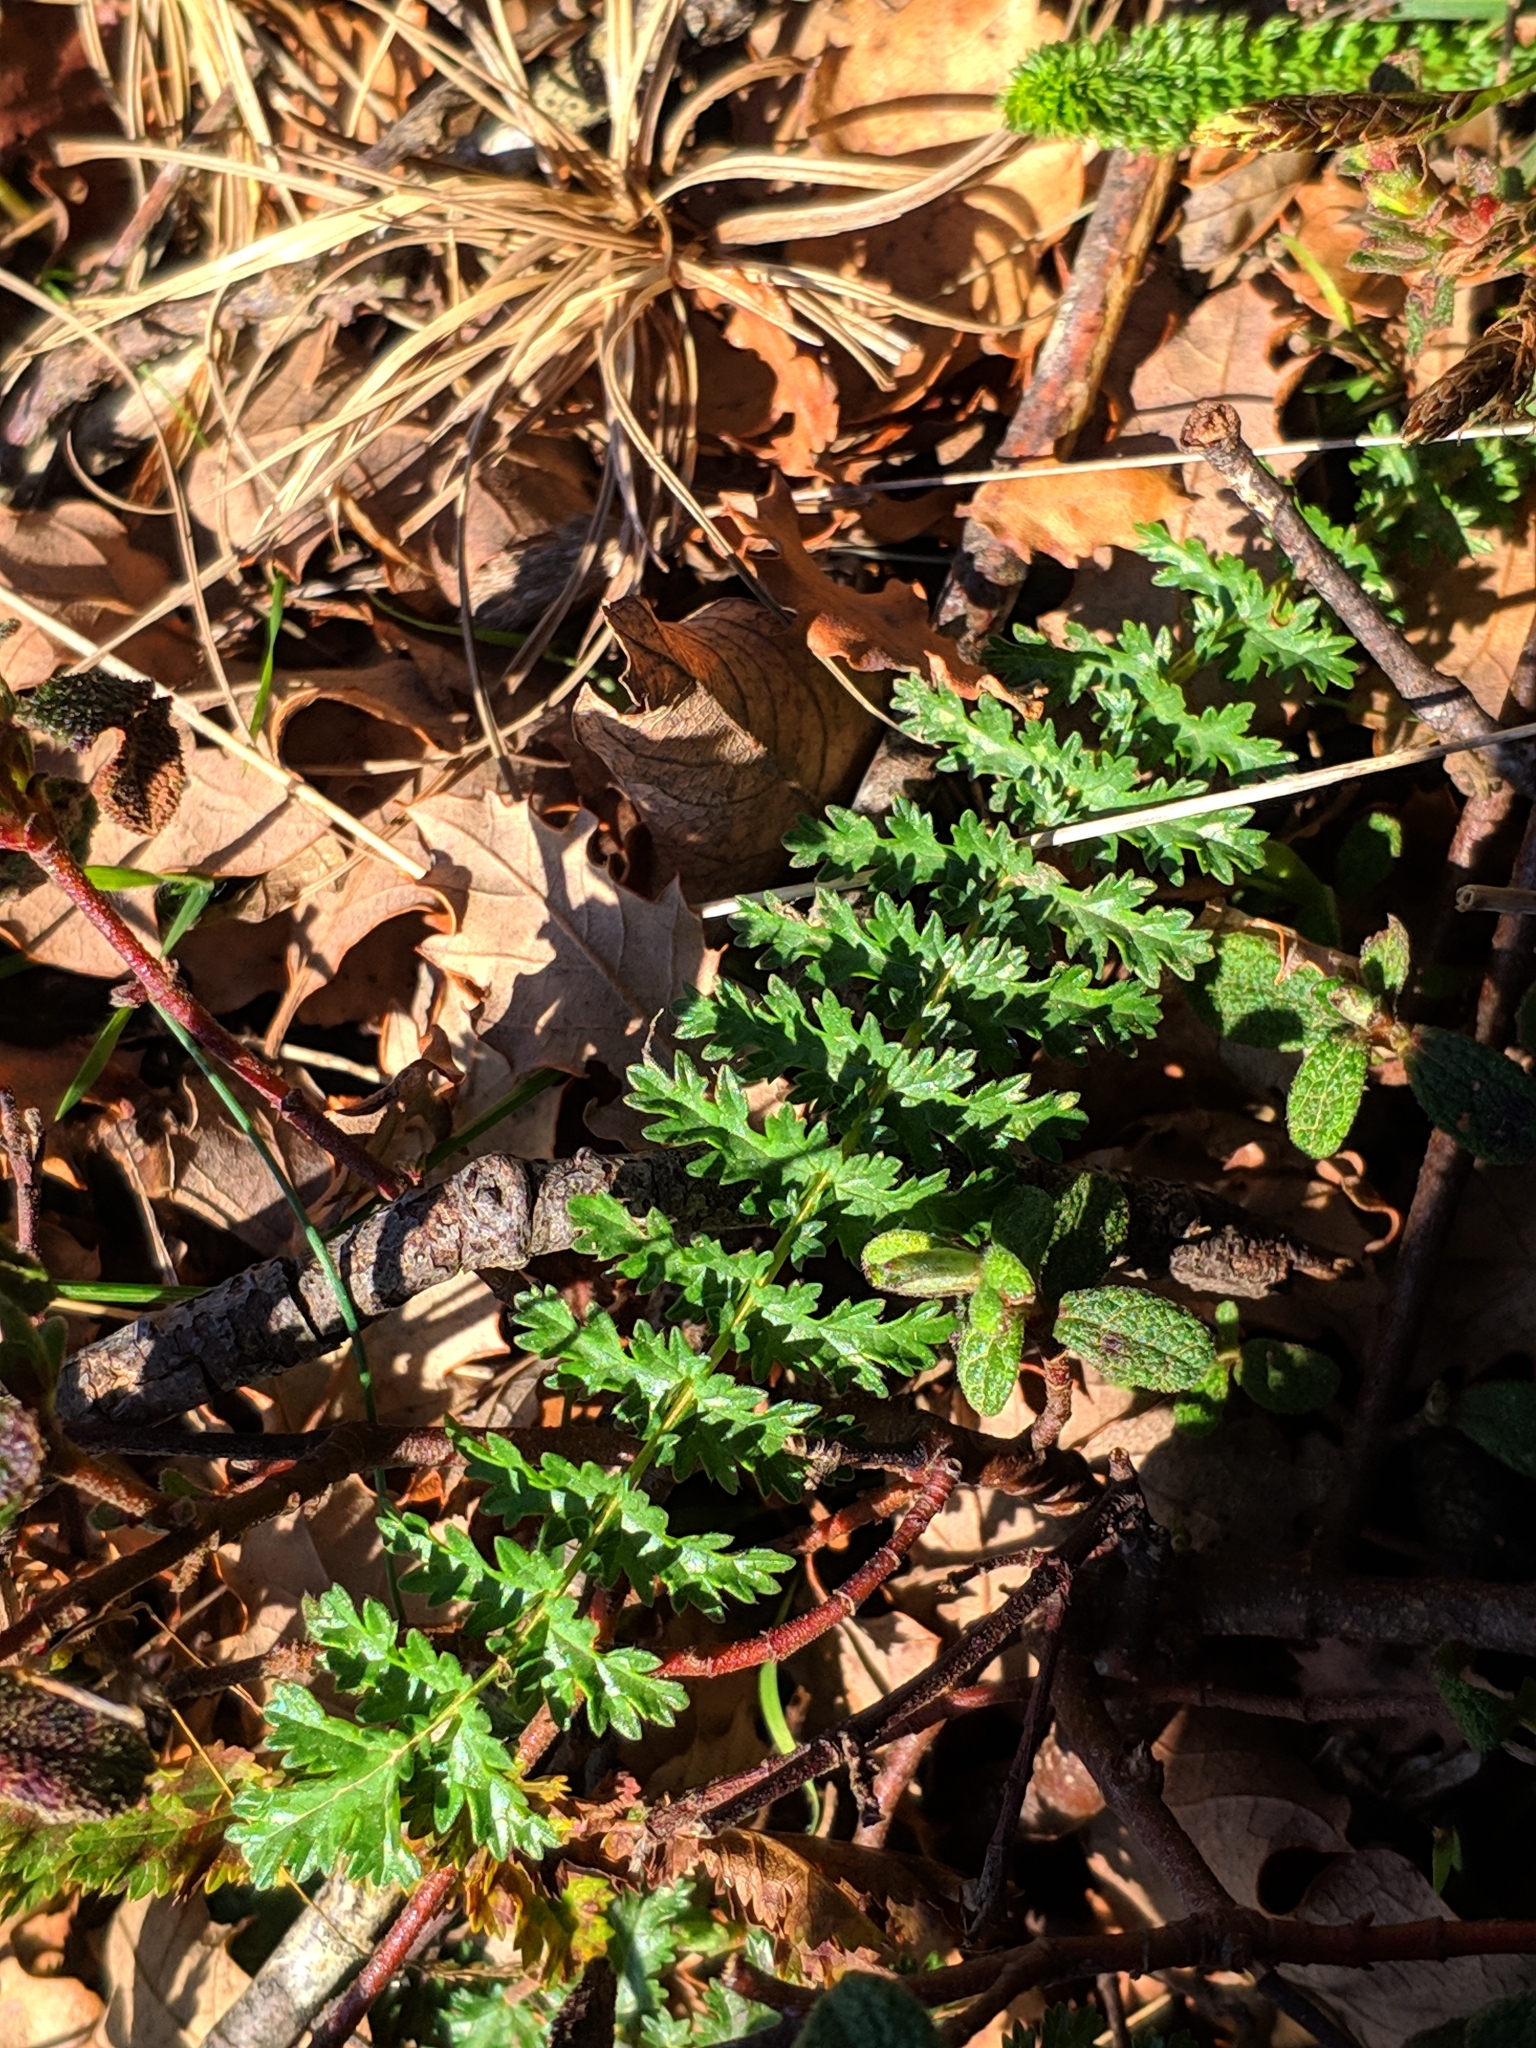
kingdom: Plantae
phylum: Tracheophyta
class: Magnoliopsida
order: Rosales
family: Rosaceae
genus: Filipendula
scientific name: Filipendula vulgaris
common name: Dropwort
